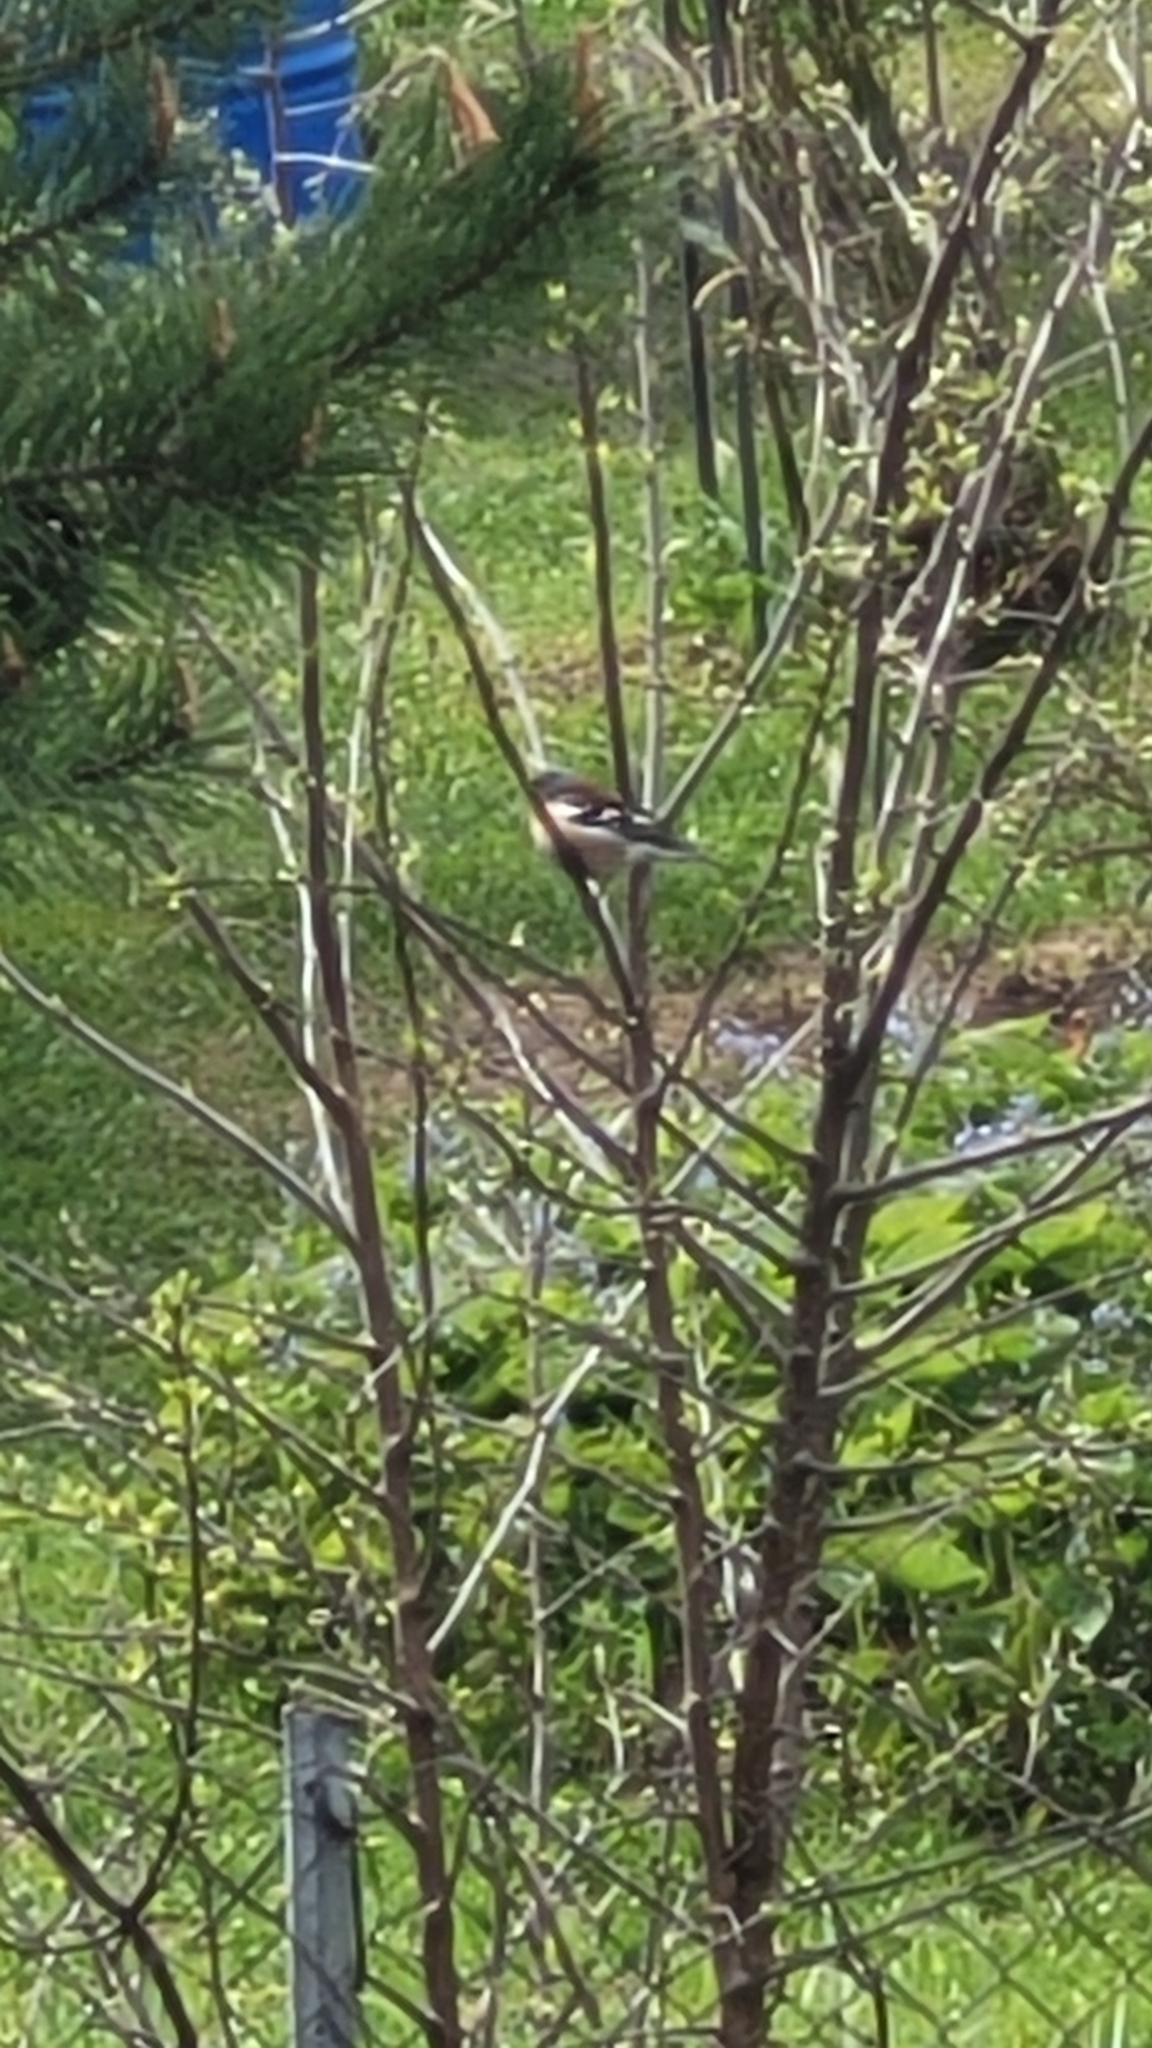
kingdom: Animalia
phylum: Chordata
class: Aves
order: Passeriformes
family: Fringillidae
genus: Fringilla
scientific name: Fringilla coelebs
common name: Common chaffinch
